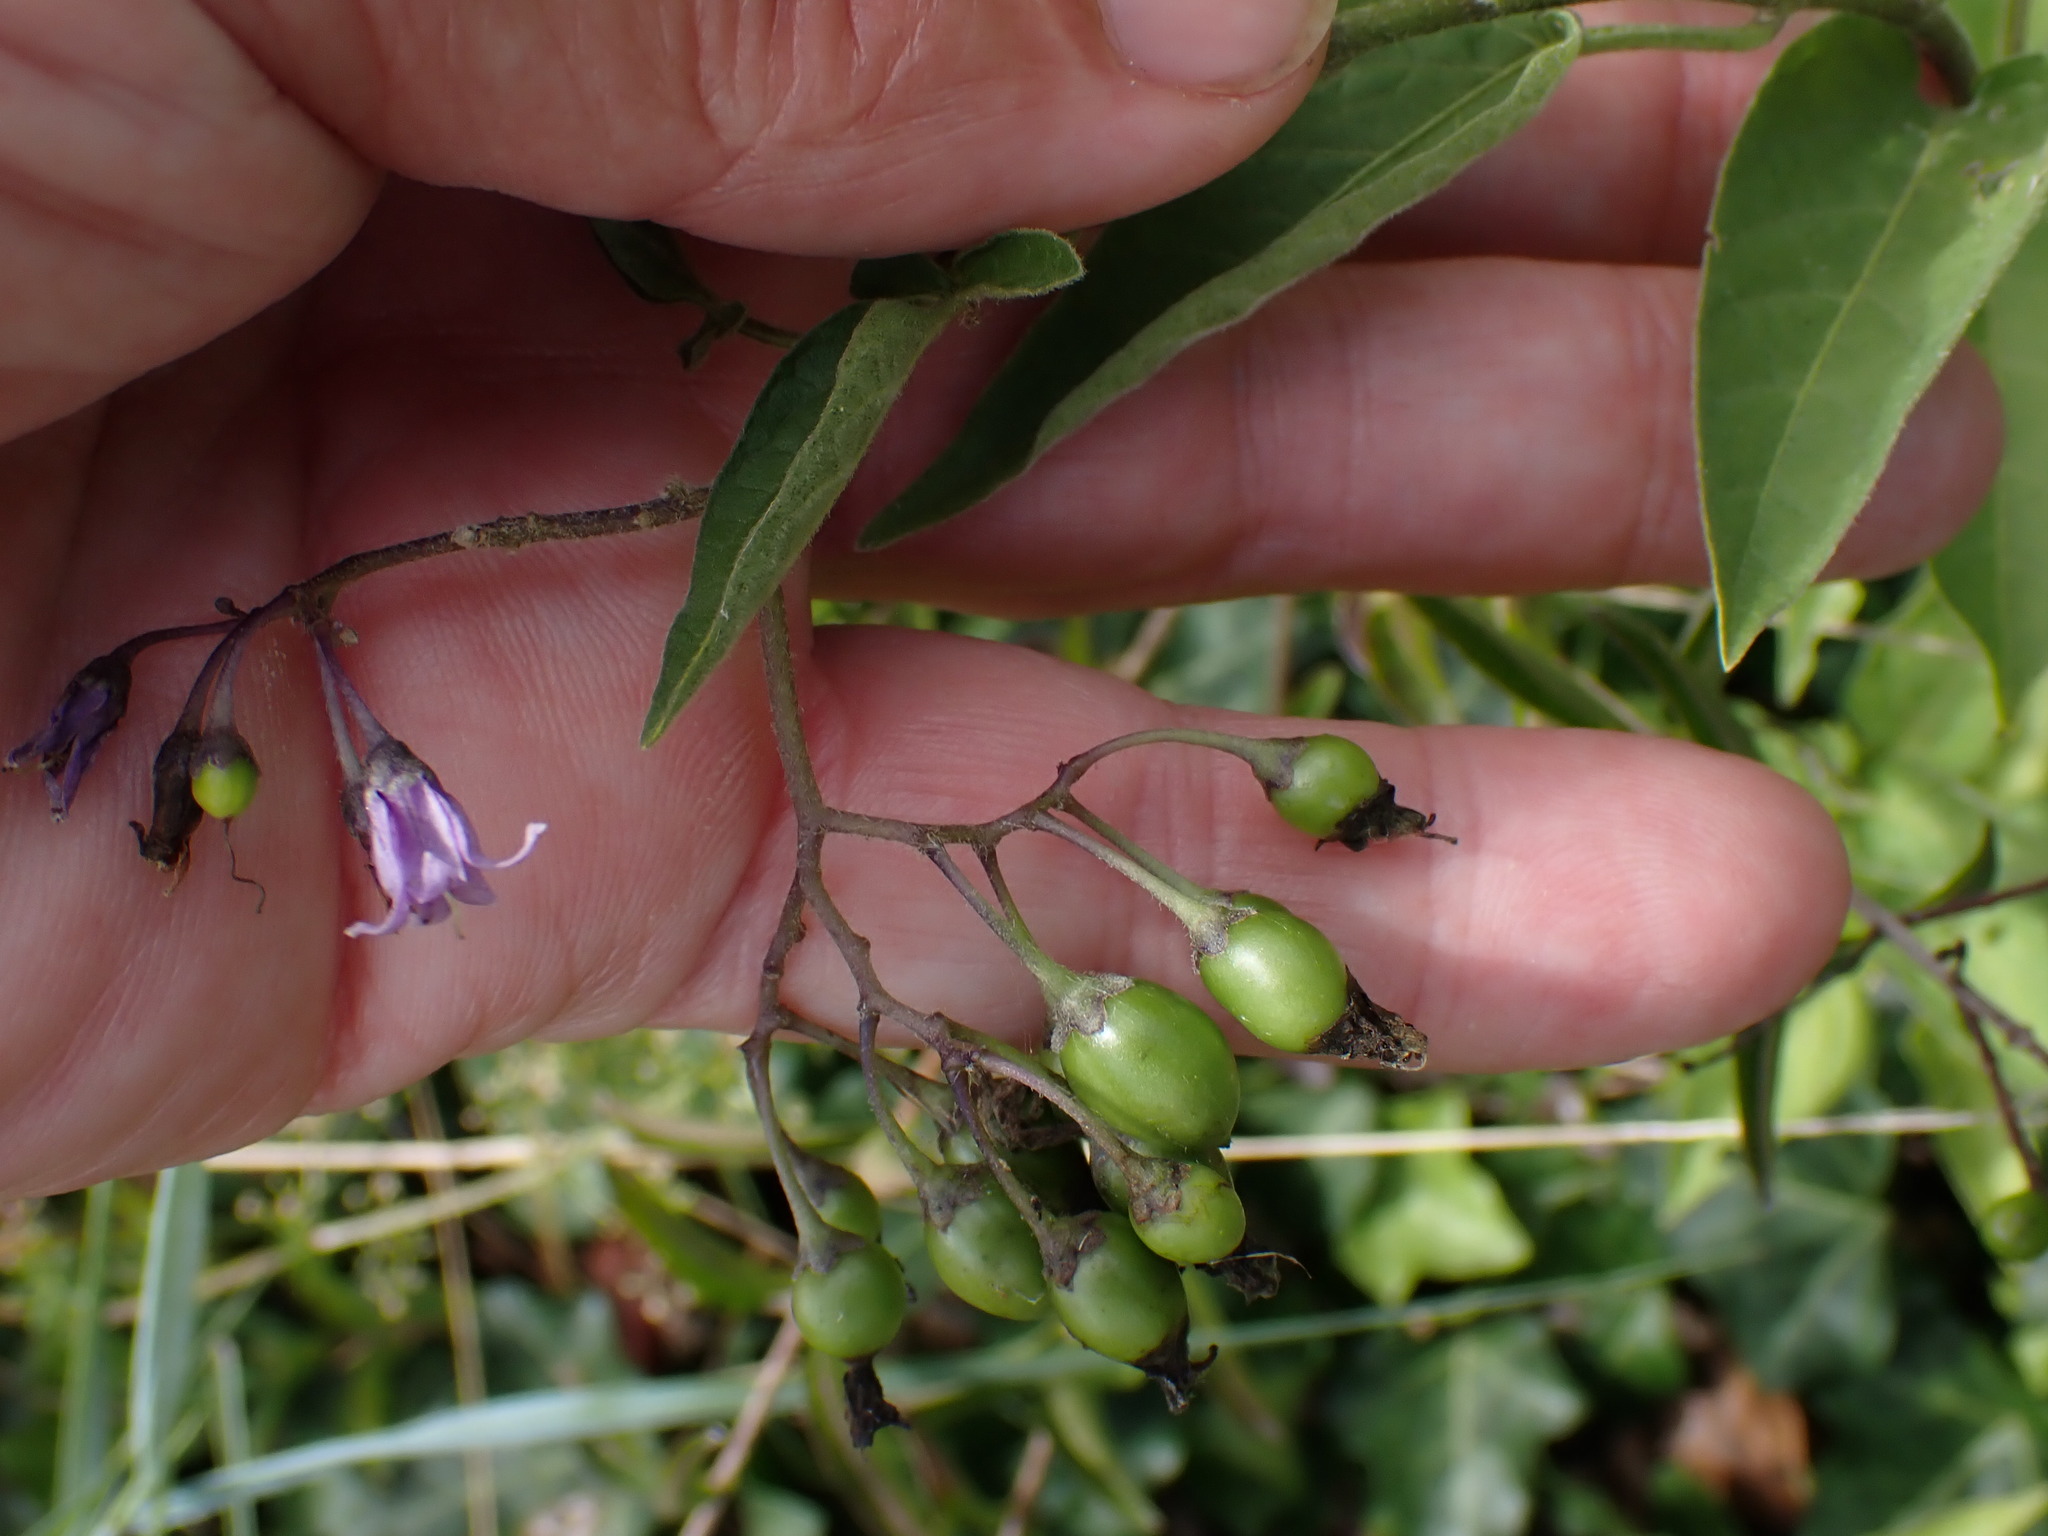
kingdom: Plantae
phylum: Tracheophyta
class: Magnoliopsida
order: Solanales
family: Solanaceae
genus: Solanum
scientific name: Solanum dulcamara
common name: Climbing nightshade
